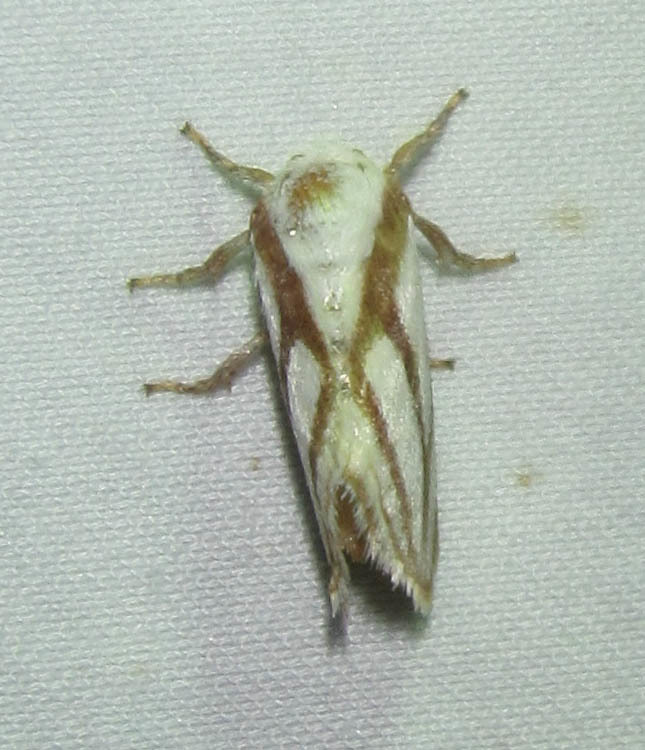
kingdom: Animalia
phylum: Arthropoda
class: Insecta
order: Lepidoptera
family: Limacodidae
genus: Parapluda
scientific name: Parapluda invitabilis
